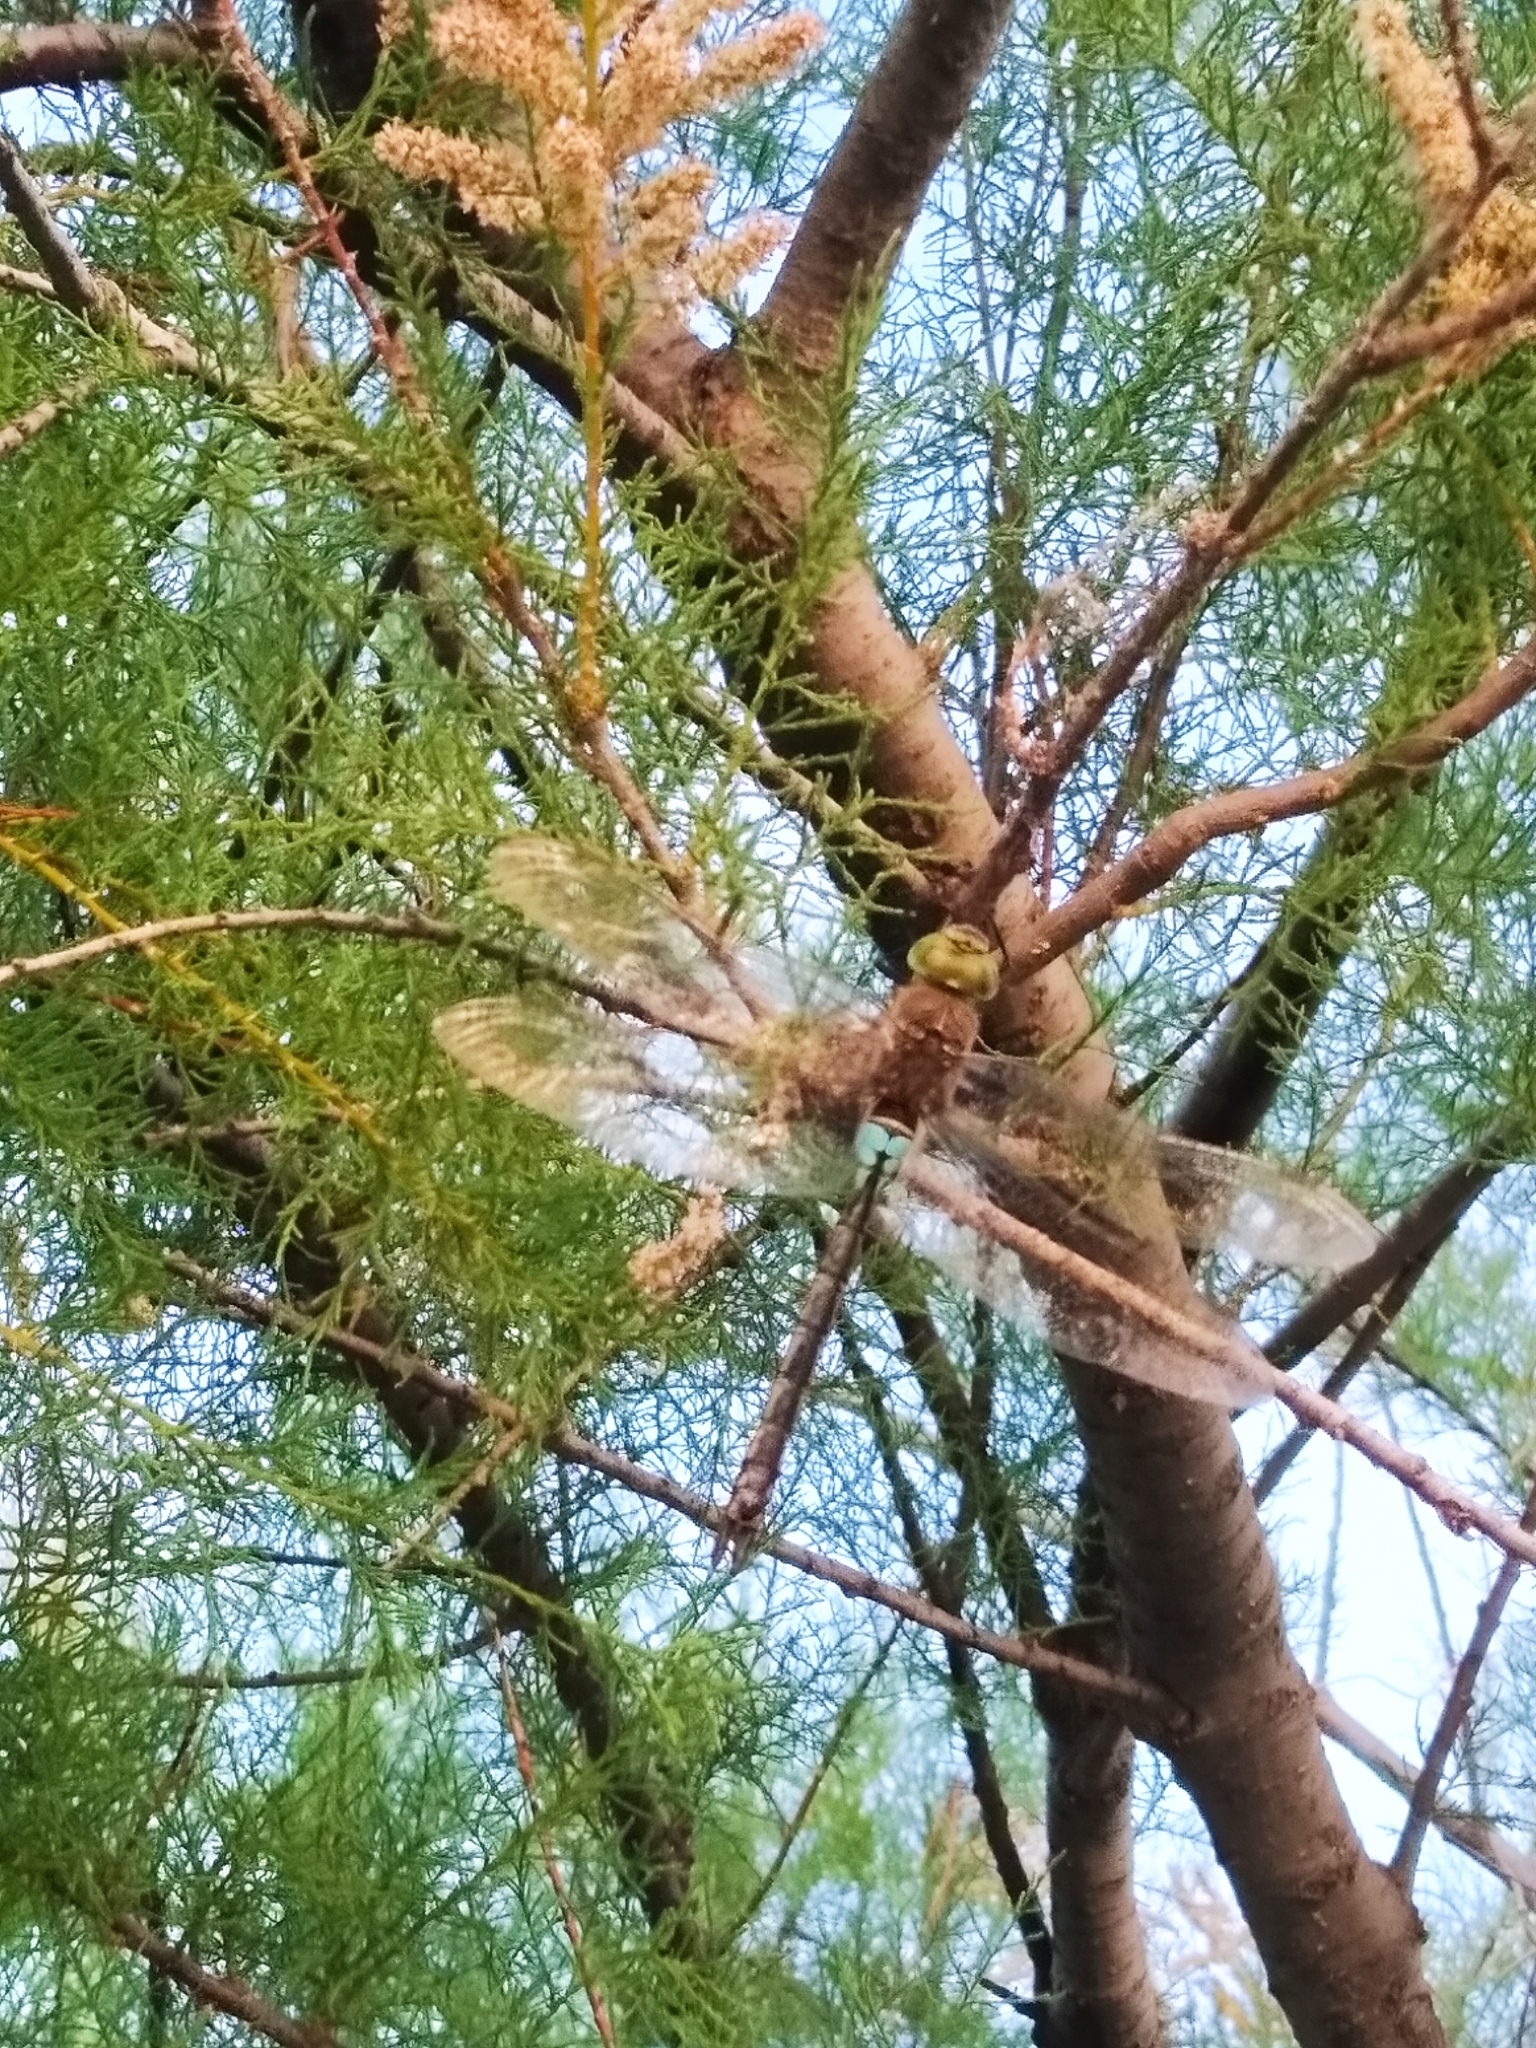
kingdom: Animalia
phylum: Arthropoda
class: Insecta
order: Odonata
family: Aeshnidae
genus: Anax
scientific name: Anax parthenope
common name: Lesser emperor
